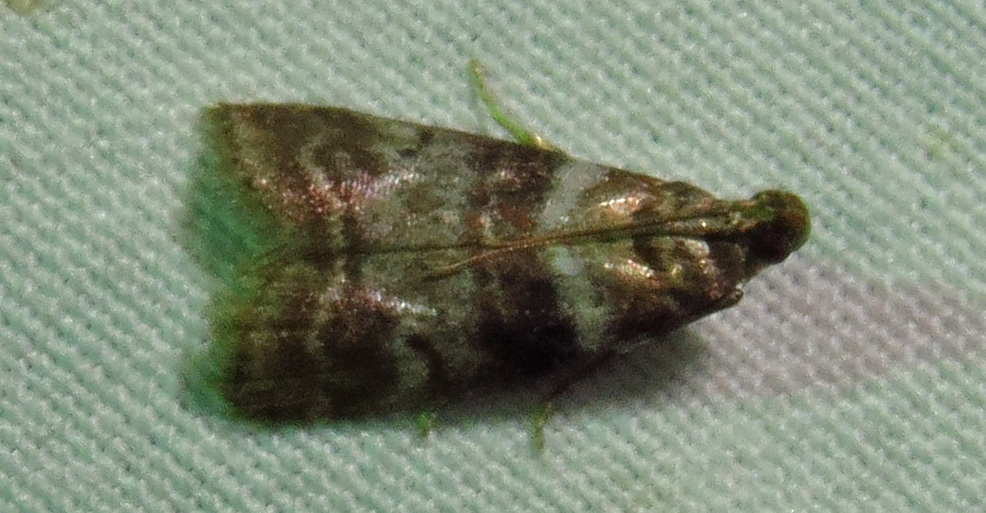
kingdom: Animalia
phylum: Arthropoda
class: Insecta
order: Lepidoptera
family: Pyralidae
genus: Sciota
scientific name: Sciota uvinella
